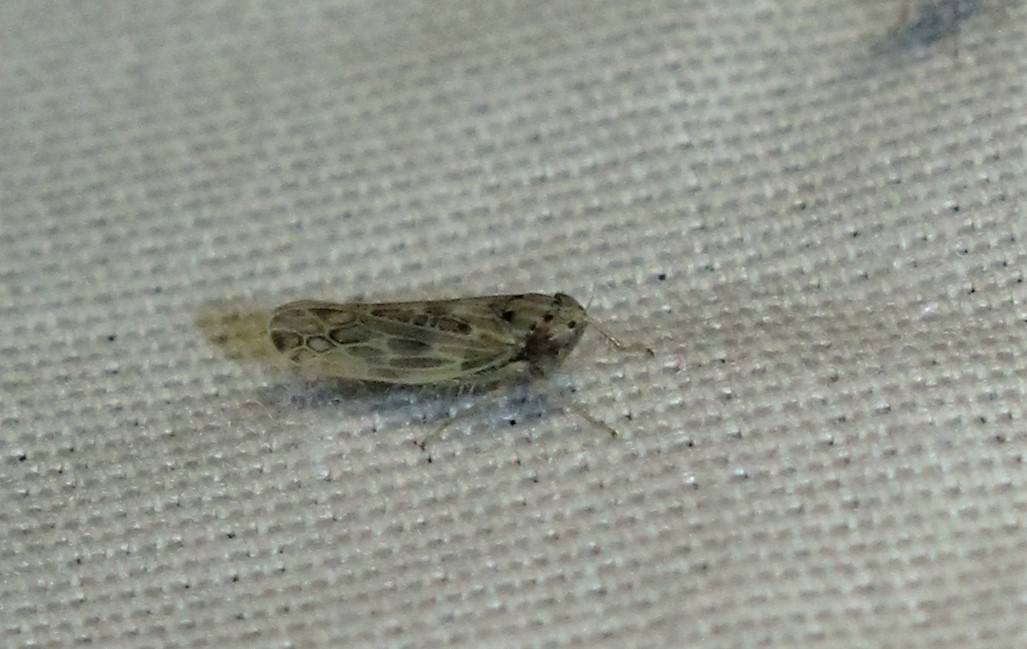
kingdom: Animalia
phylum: Arthropoda
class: Insecta
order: Hemiptera
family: Cicadellidae
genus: Endria
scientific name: Endria inimicus
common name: Painted leafhopper
